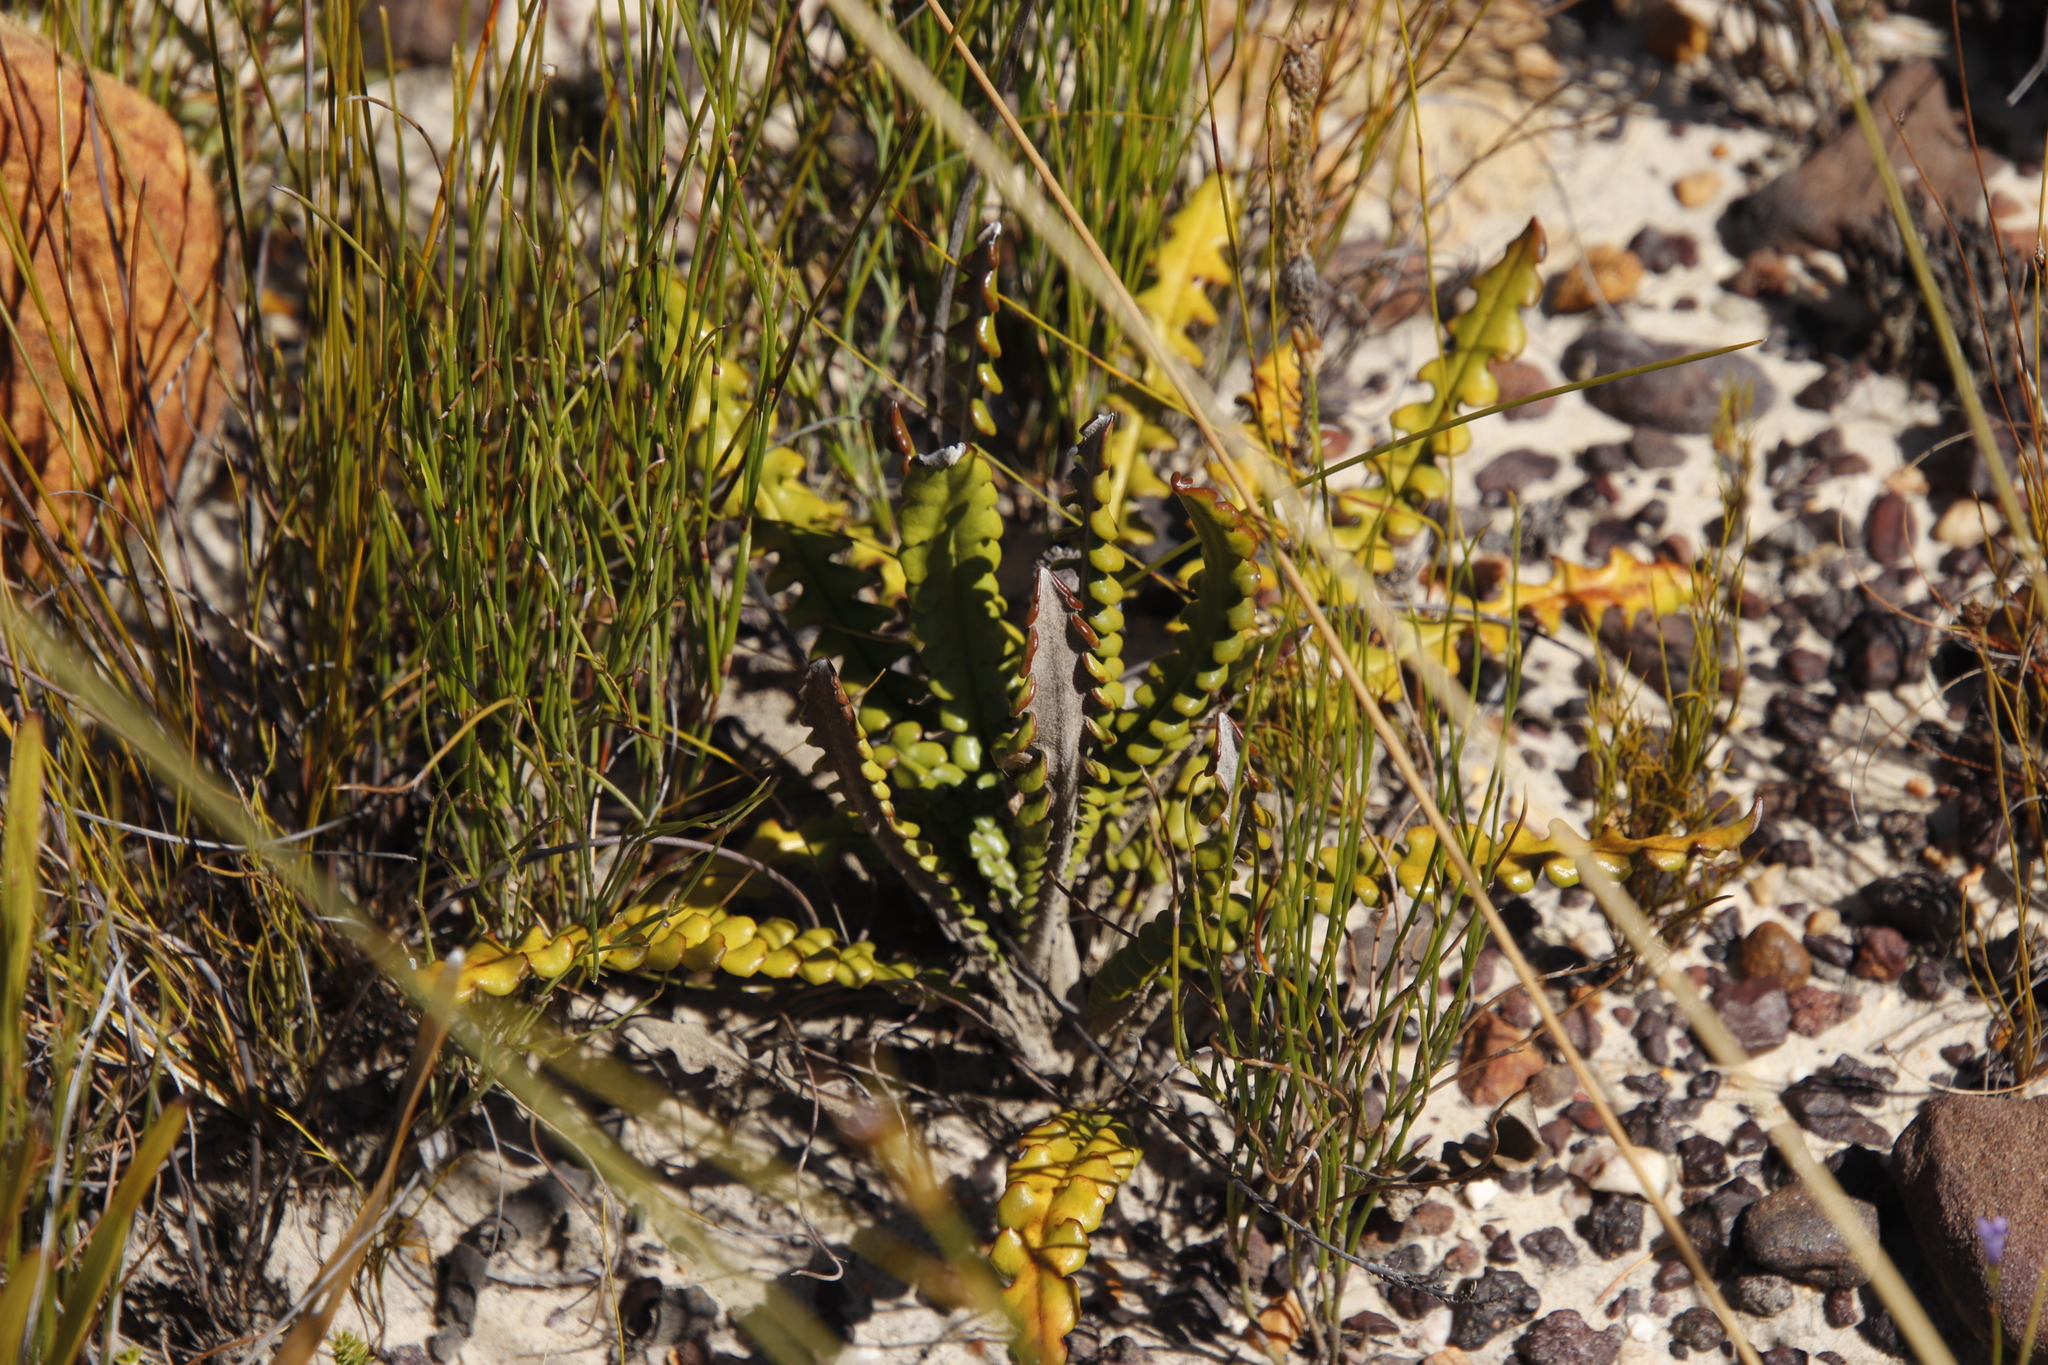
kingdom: Plantae
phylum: Tracheophyta
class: Magnoliopsida
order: Asterales
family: Asteraceae
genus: Gerbera
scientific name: Gerbera linnaei
